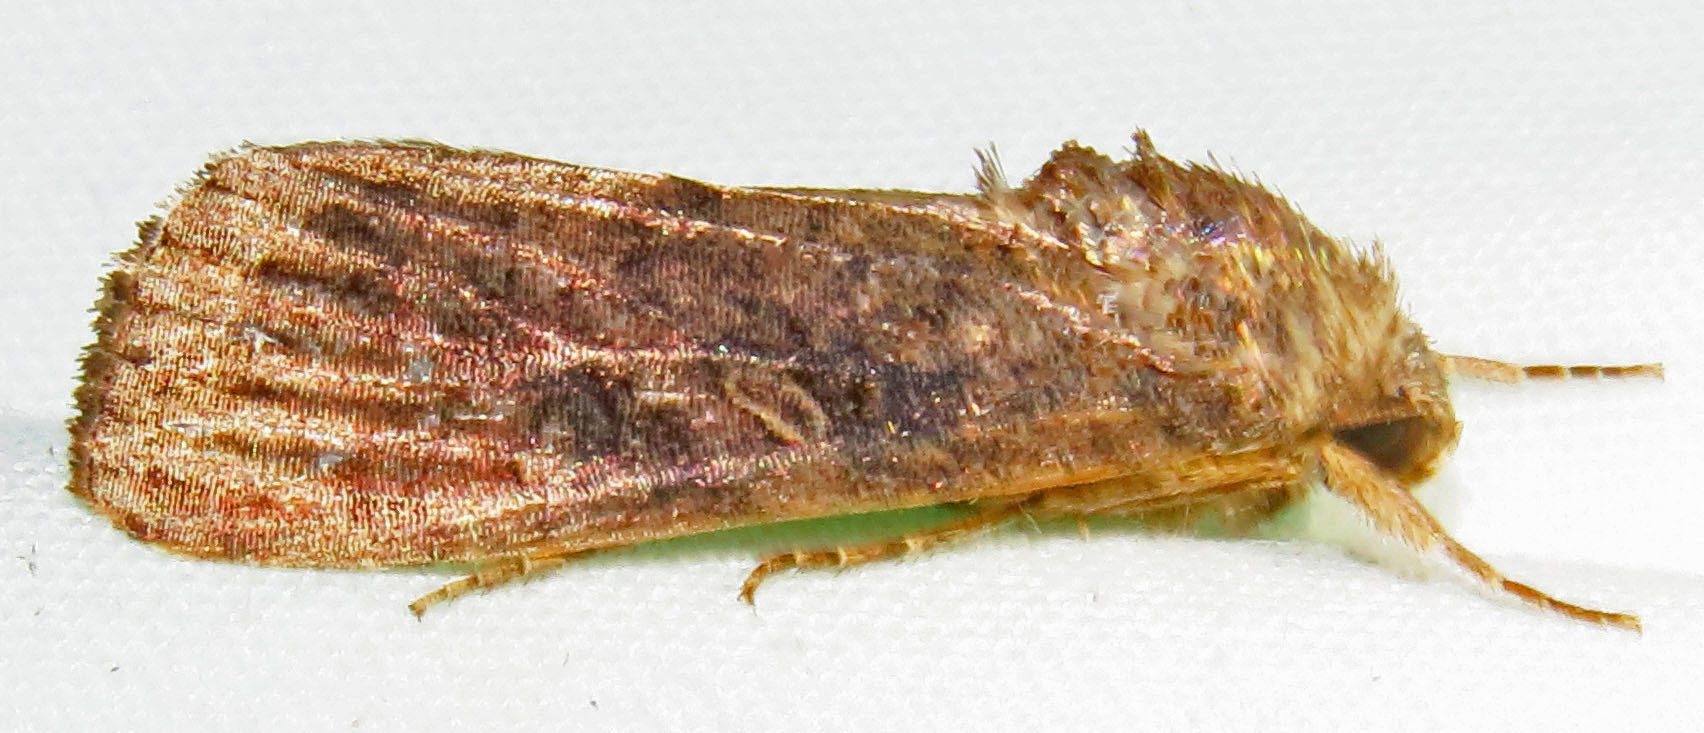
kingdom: Animalia
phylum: Arthropoda
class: Insecta
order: Lepidoptera
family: Noctuidae
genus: Spodoptera
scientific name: Spodoptera frugiperda
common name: Fall armyworm
